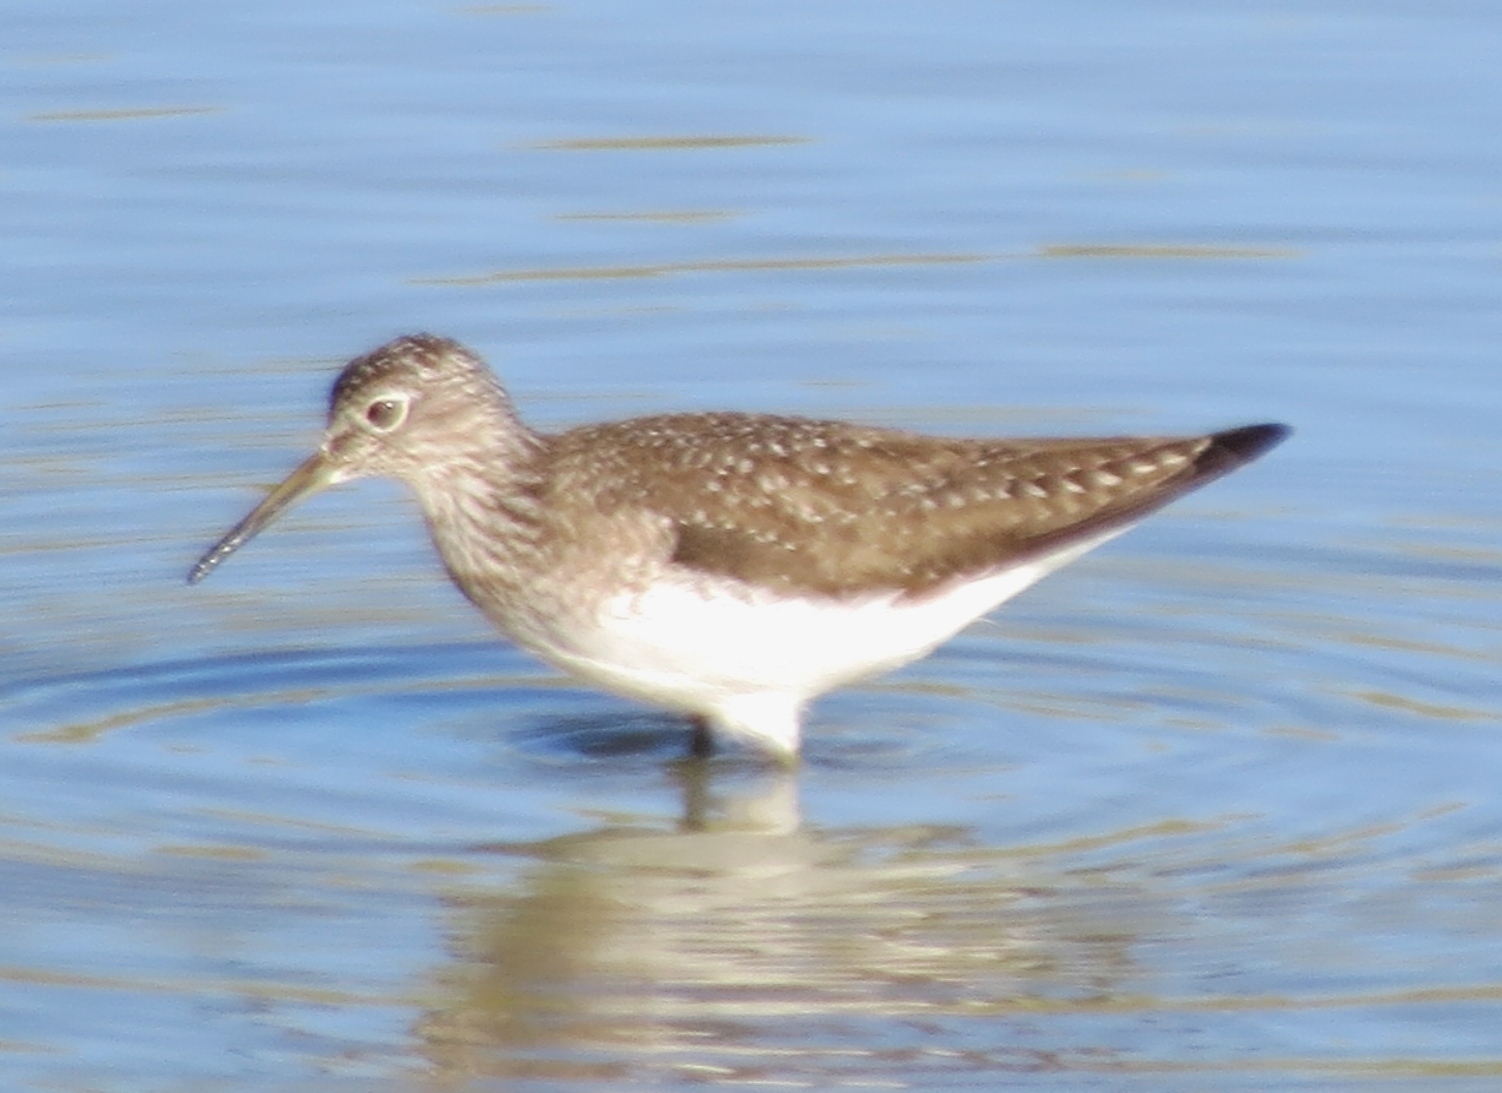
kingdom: Animalia
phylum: Chordata
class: Aves
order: Charadriiformes
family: Scolopacidae
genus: Tringa
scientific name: Tringa solitaria
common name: Solitary sandpiper
